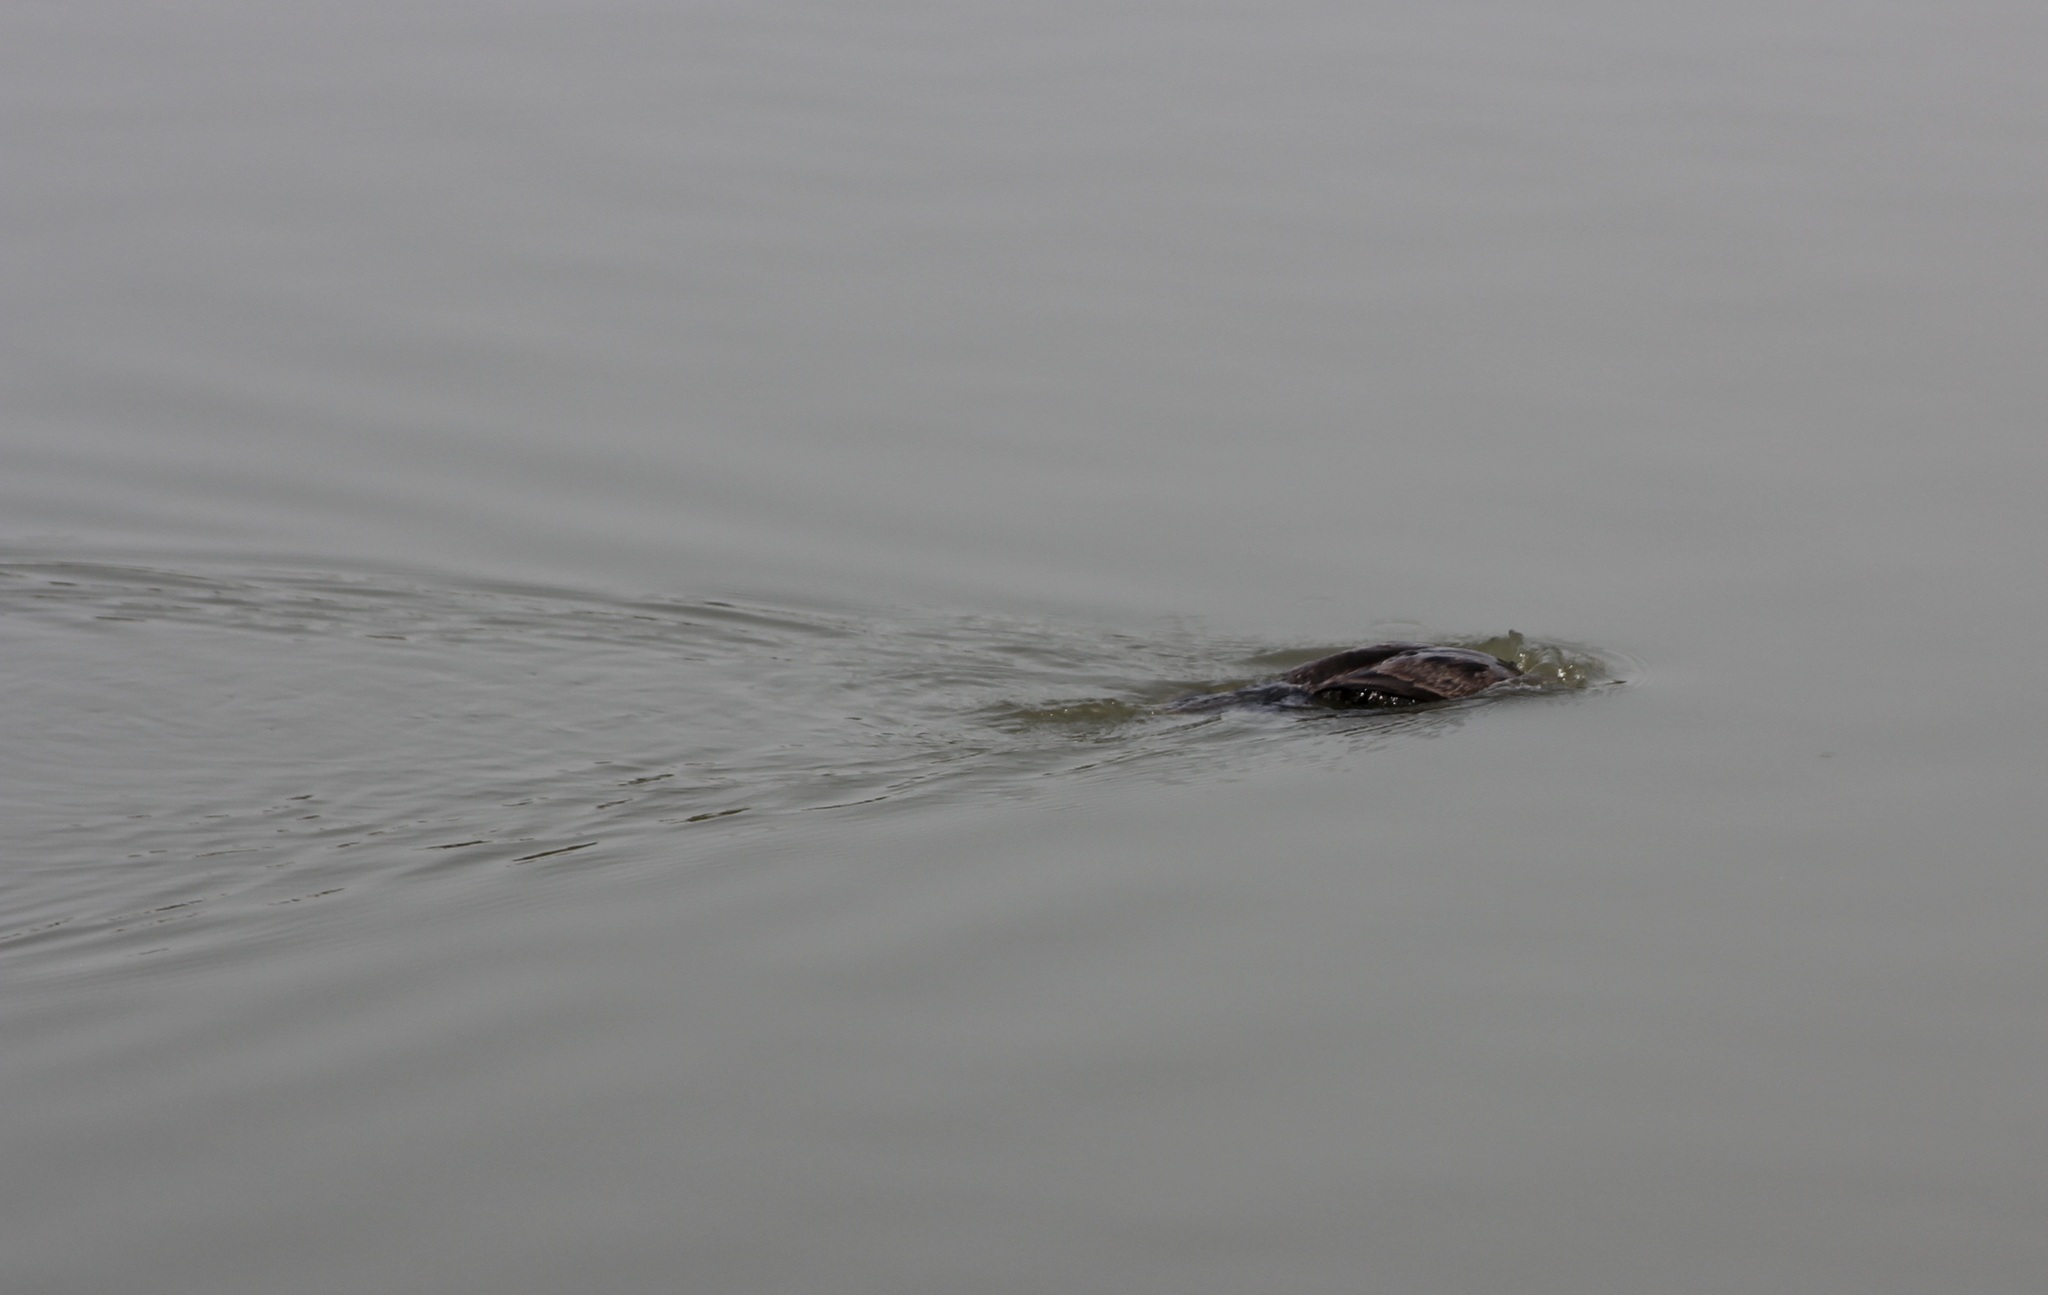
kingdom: Animalia
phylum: Chordata
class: Aves
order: Suliformes
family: Phalacrocoracidae
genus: Phalacrocorax
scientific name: Phalacrocorax auritus
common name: Double-crested cormorant
